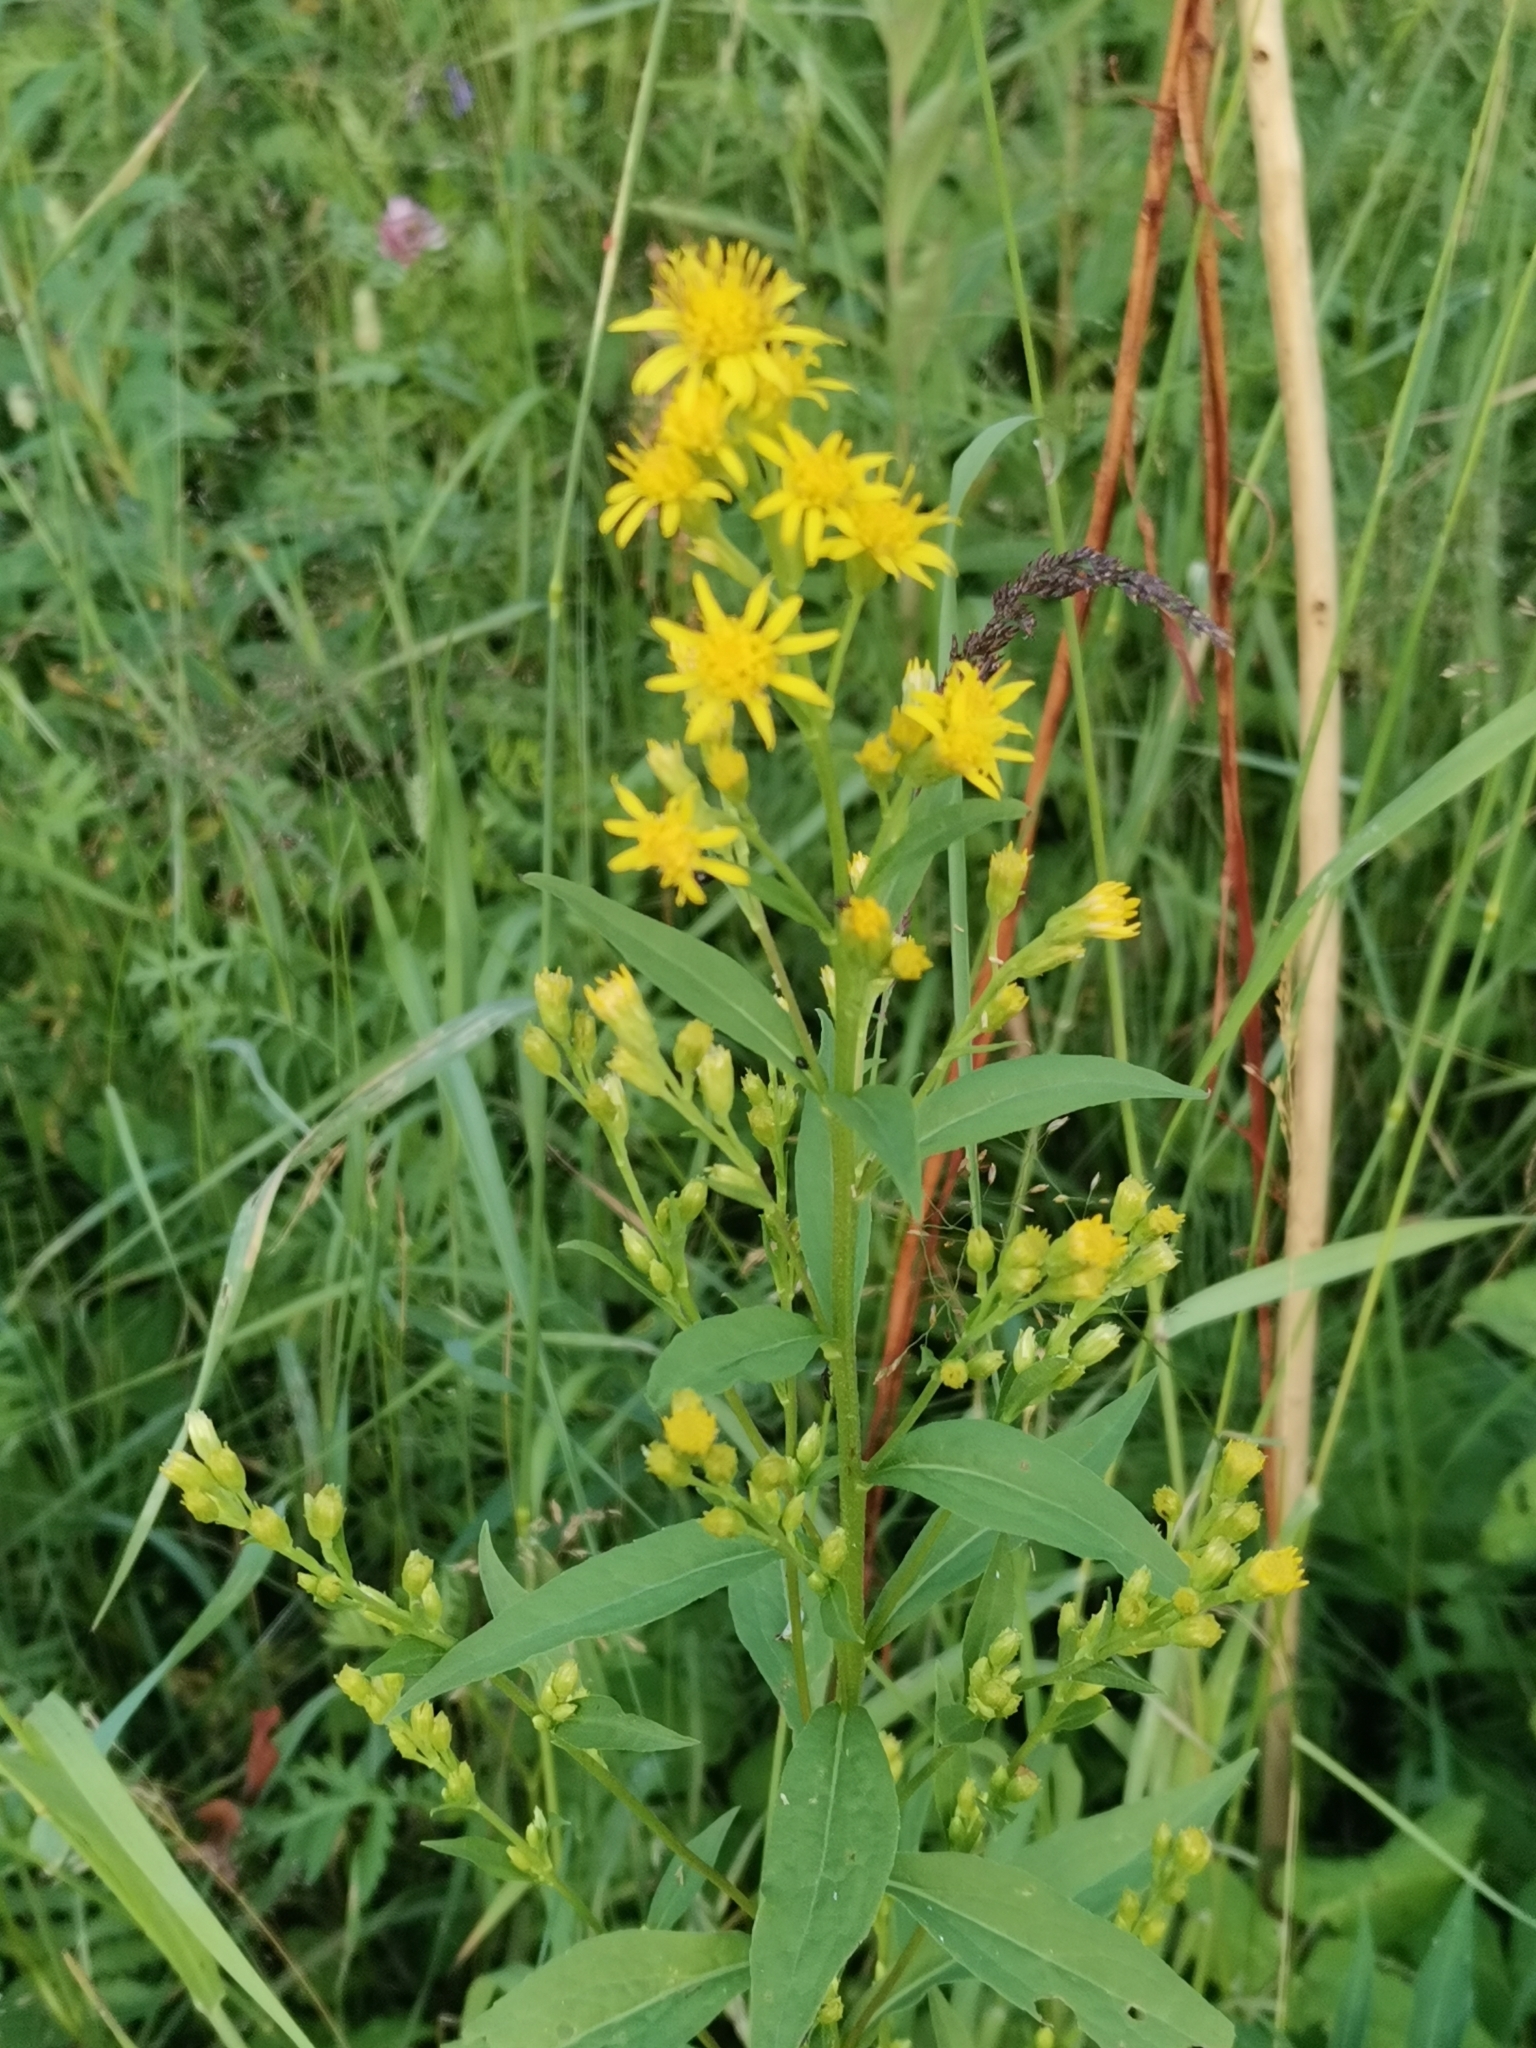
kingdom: Plantae
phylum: Tracheophyta
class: Magnoliopsida
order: Asterales
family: Asteraceae
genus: Solidago
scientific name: Solidago virgaurea
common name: Goldenrod
